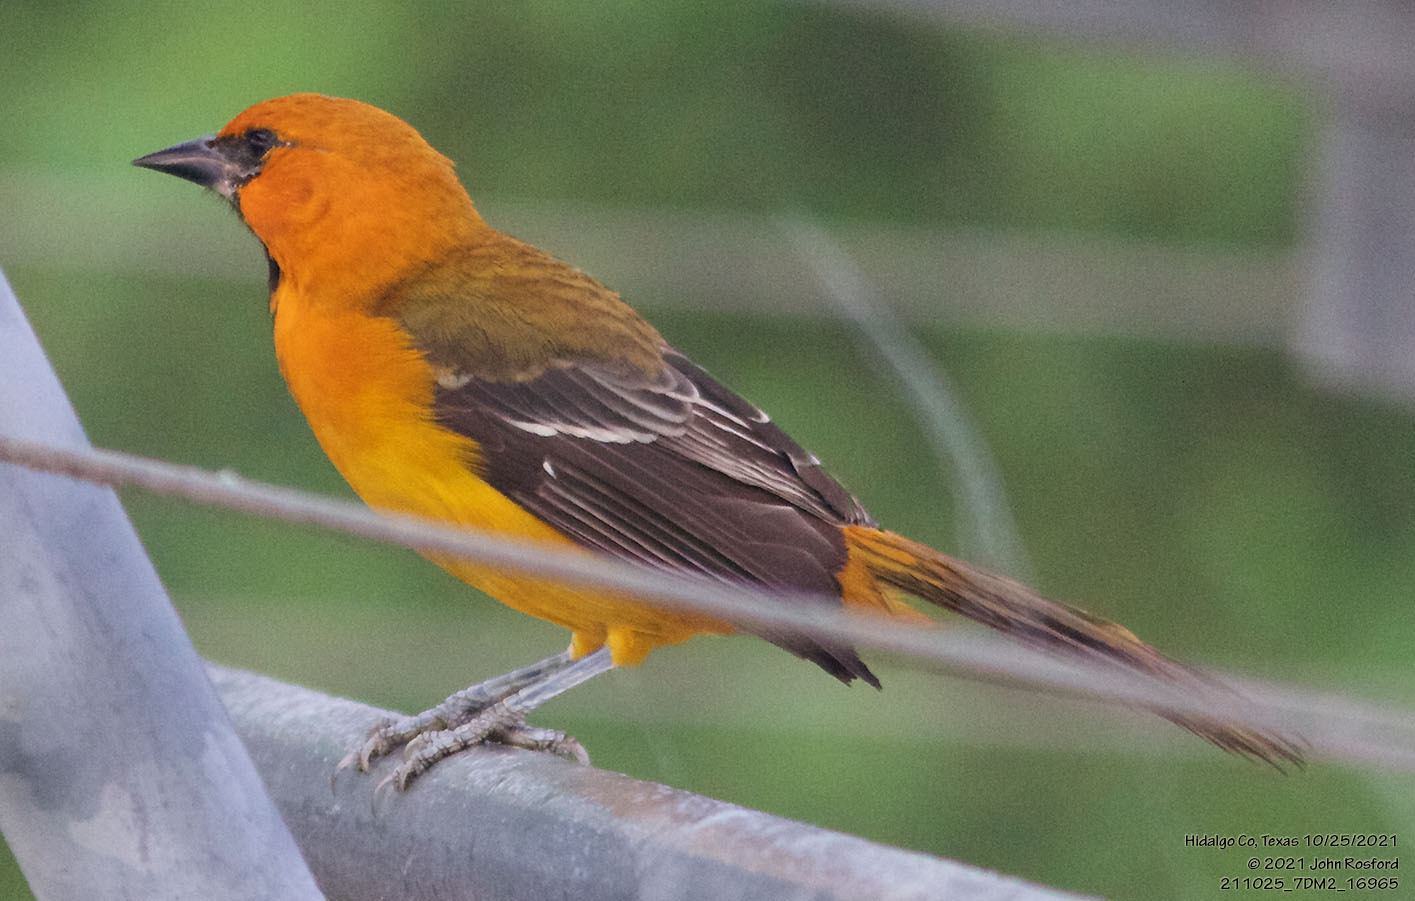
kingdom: Animalia
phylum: Chordata
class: Aves
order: Passeriformes
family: Icteridae
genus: Icterus
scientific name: Icterus gularis
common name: Altamira oriole
